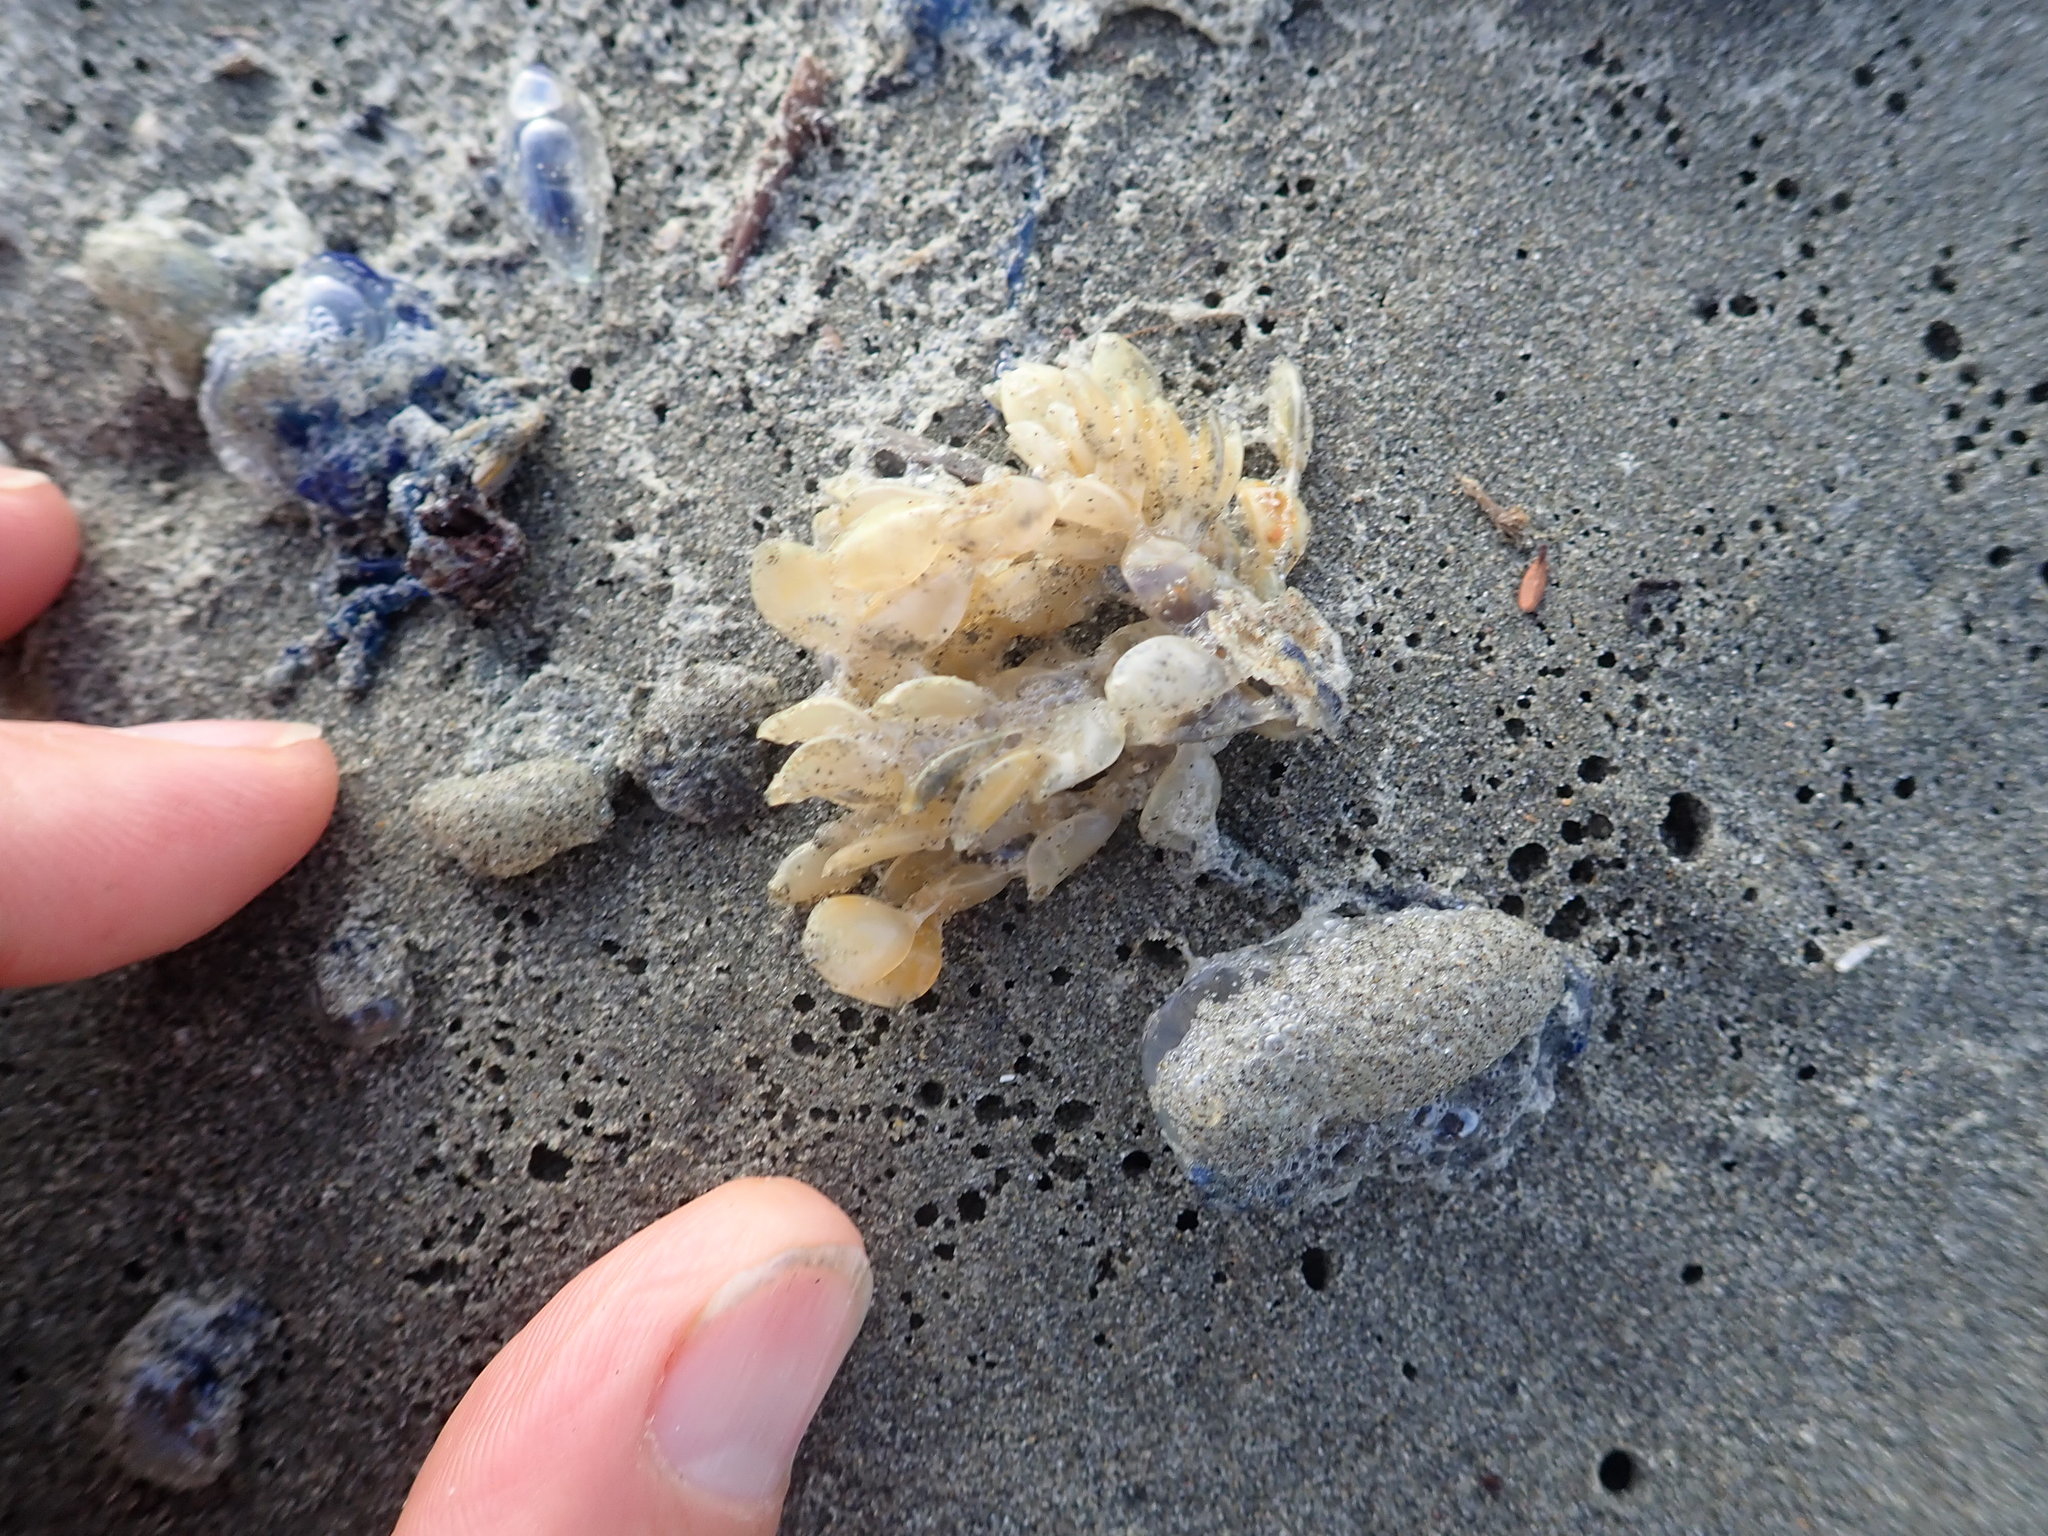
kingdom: Animalia
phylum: Mollusca
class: Gastropoda
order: Neogastropoda
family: Cominellidae
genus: Cominella
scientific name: Cominella adspersa
